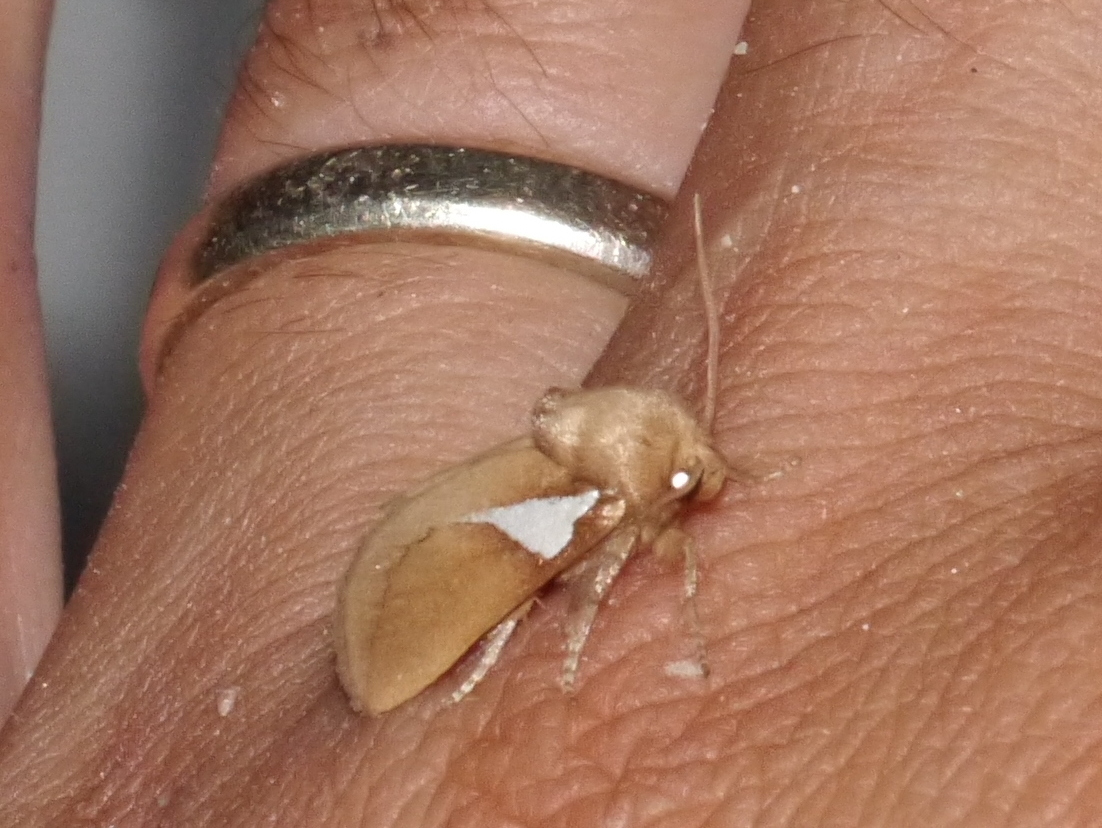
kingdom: Animalia
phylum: Arthropoda
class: Insecta
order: Lepidoptera
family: Limacodidae
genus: Prolimacodes
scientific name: Prolimacodes trigona
